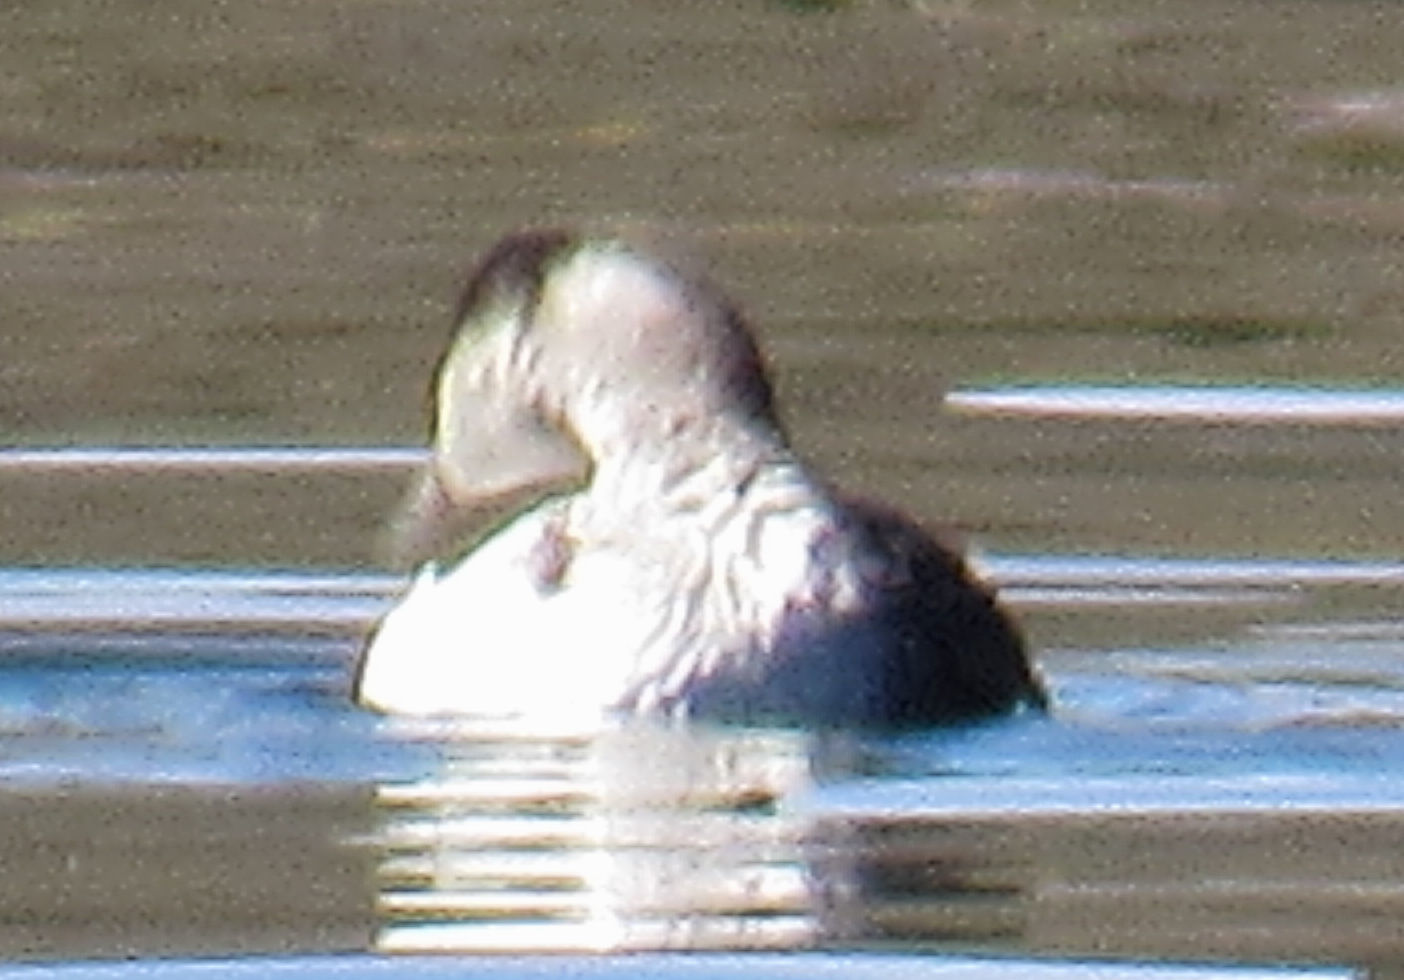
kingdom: Animalia
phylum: Chordata
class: Aves
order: Podicipediformes
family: Podicipedidae
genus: Podiceps
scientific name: Podiceps auritus
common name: Horned grebe
